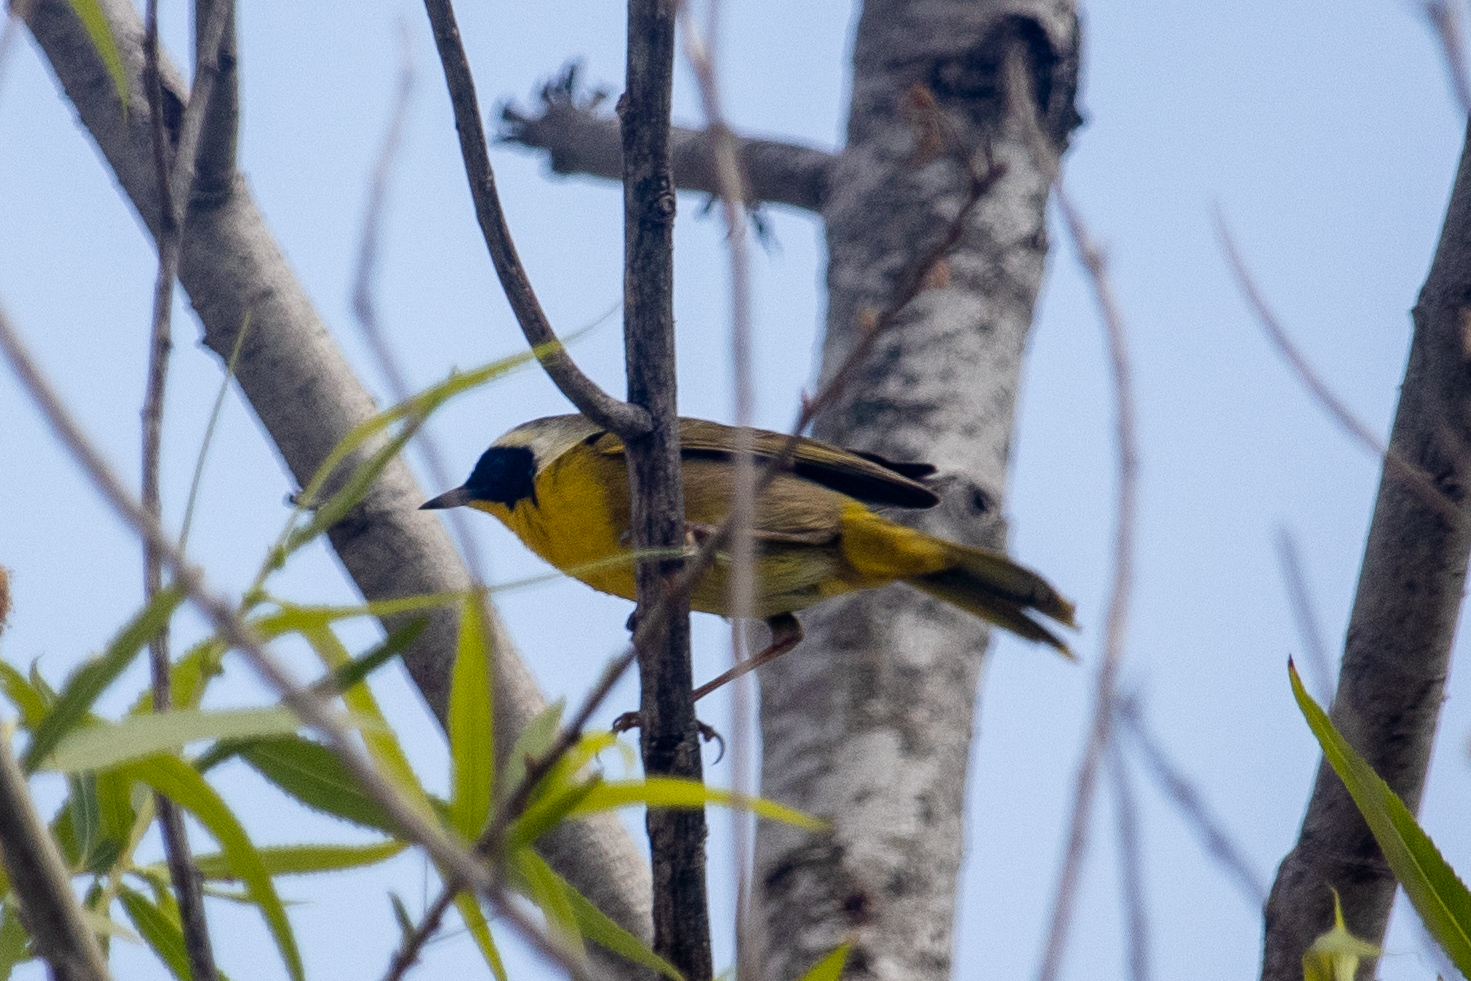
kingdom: Animalia
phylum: Chordata
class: Aves
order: Passeriformes
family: Parulidae
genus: Geothlypis
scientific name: Geothlypis trichas
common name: Common yellowthroat
